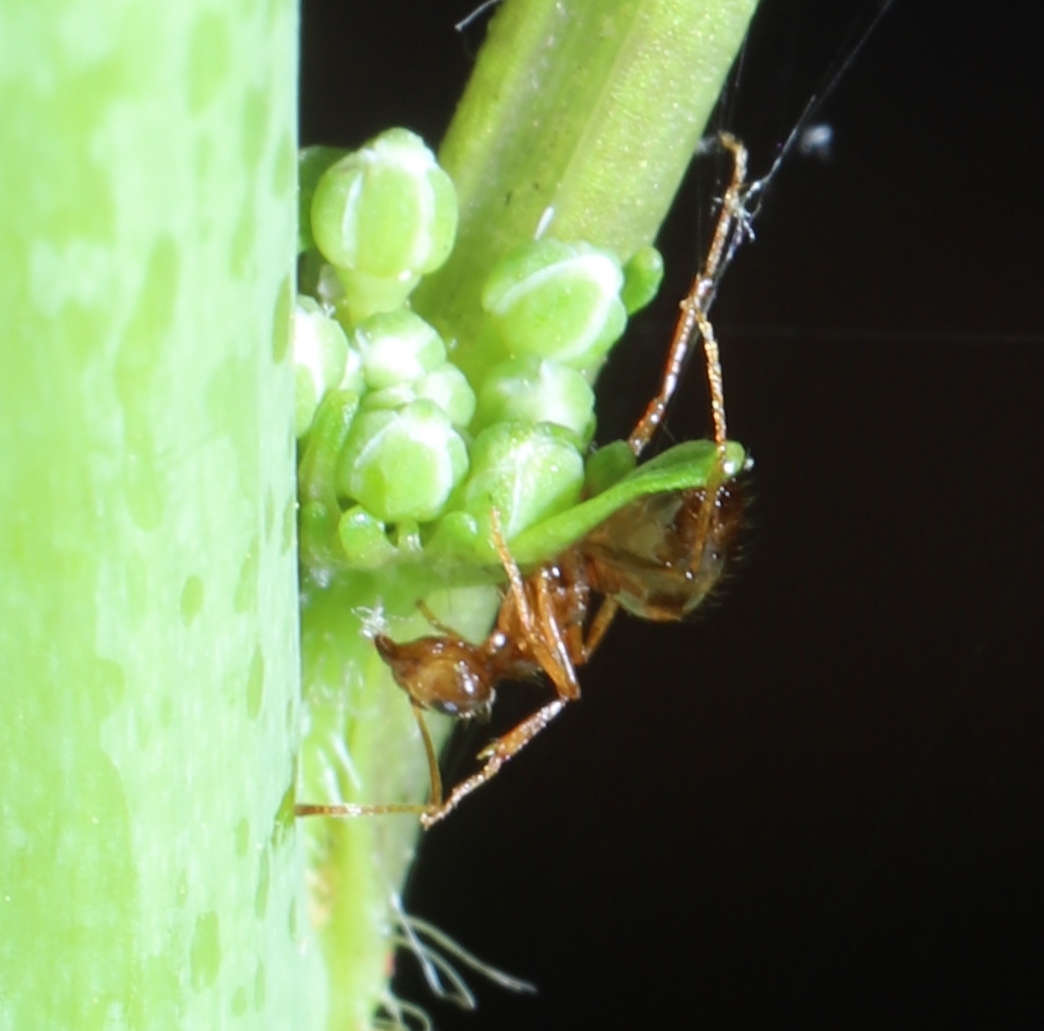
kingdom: Animalia
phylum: Arthropoda
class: Insecta
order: Hymenoptera
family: Formicidae
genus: Prenolepis
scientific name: Prenolepis imparis
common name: Small honey ant
